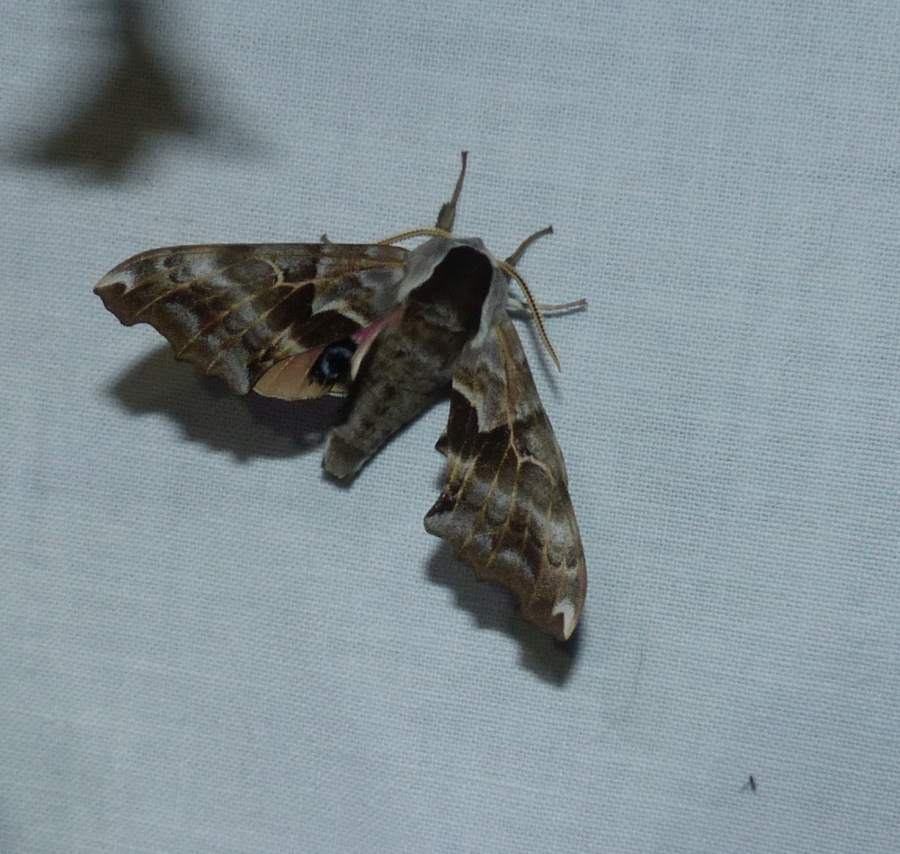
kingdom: Animalia
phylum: Arthropoda
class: Insecta
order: Lepidoptera
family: Sphingidae
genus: Smerinthus
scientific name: Smerinthus cerisyi
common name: Cerisy's sphinx moth
